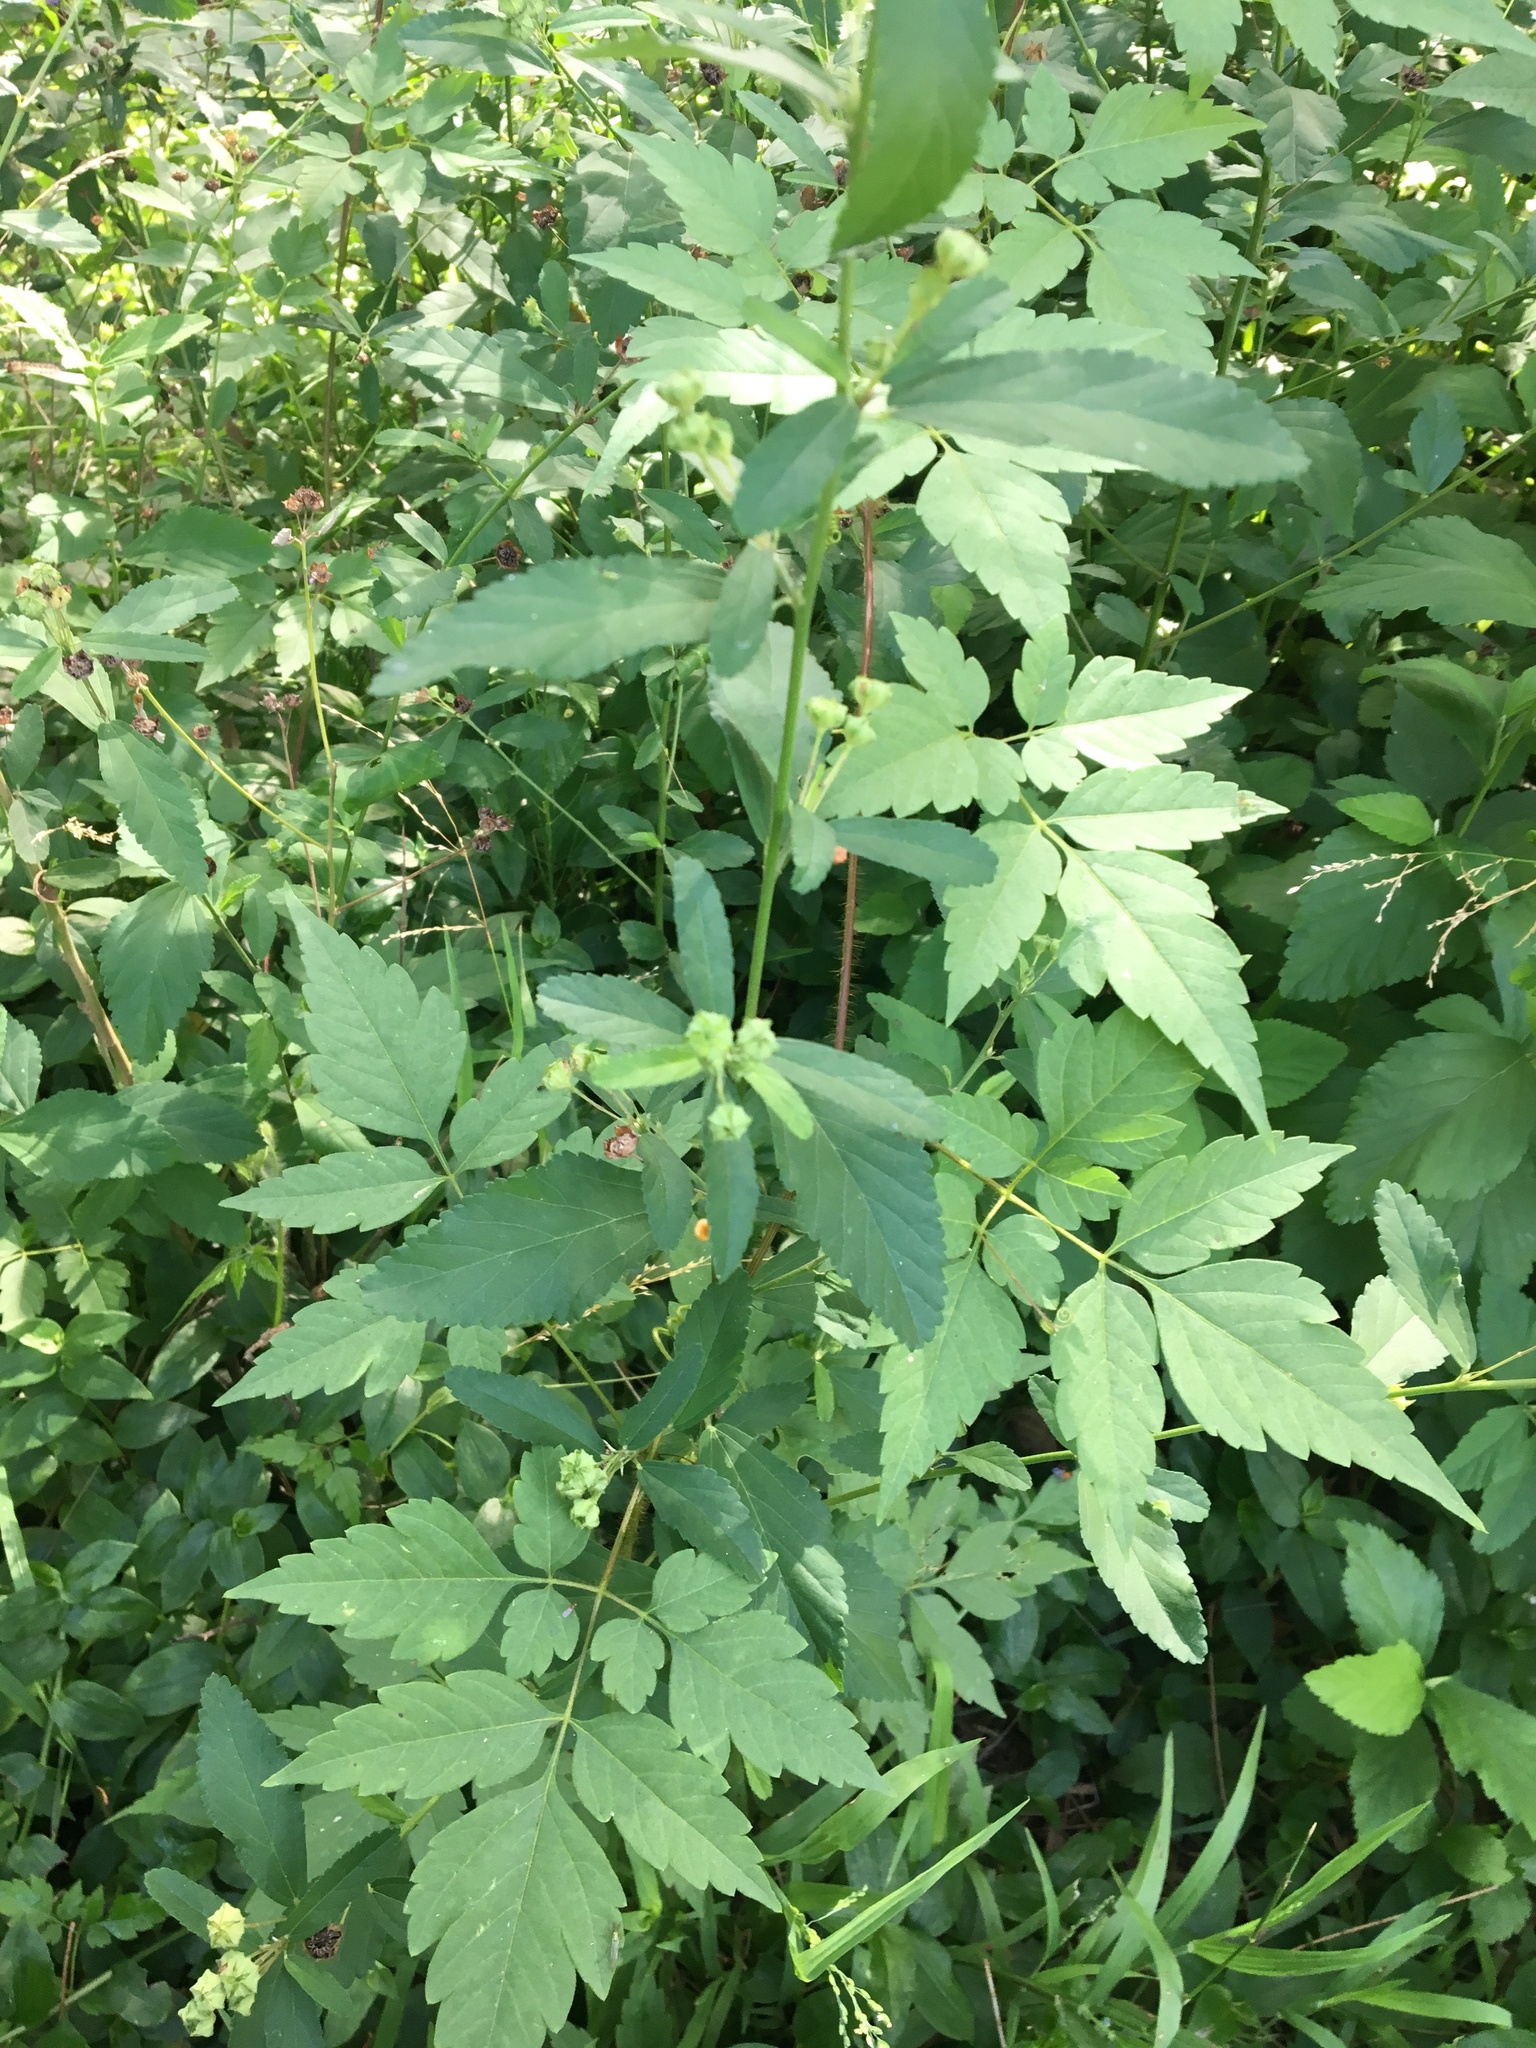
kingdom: Plantae
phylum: Tracheophyta
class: Magnoliopsida
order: Malvales
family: Malvaceae
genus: Sida
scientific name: Sida rhombifolia
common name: Queensland-hemp
